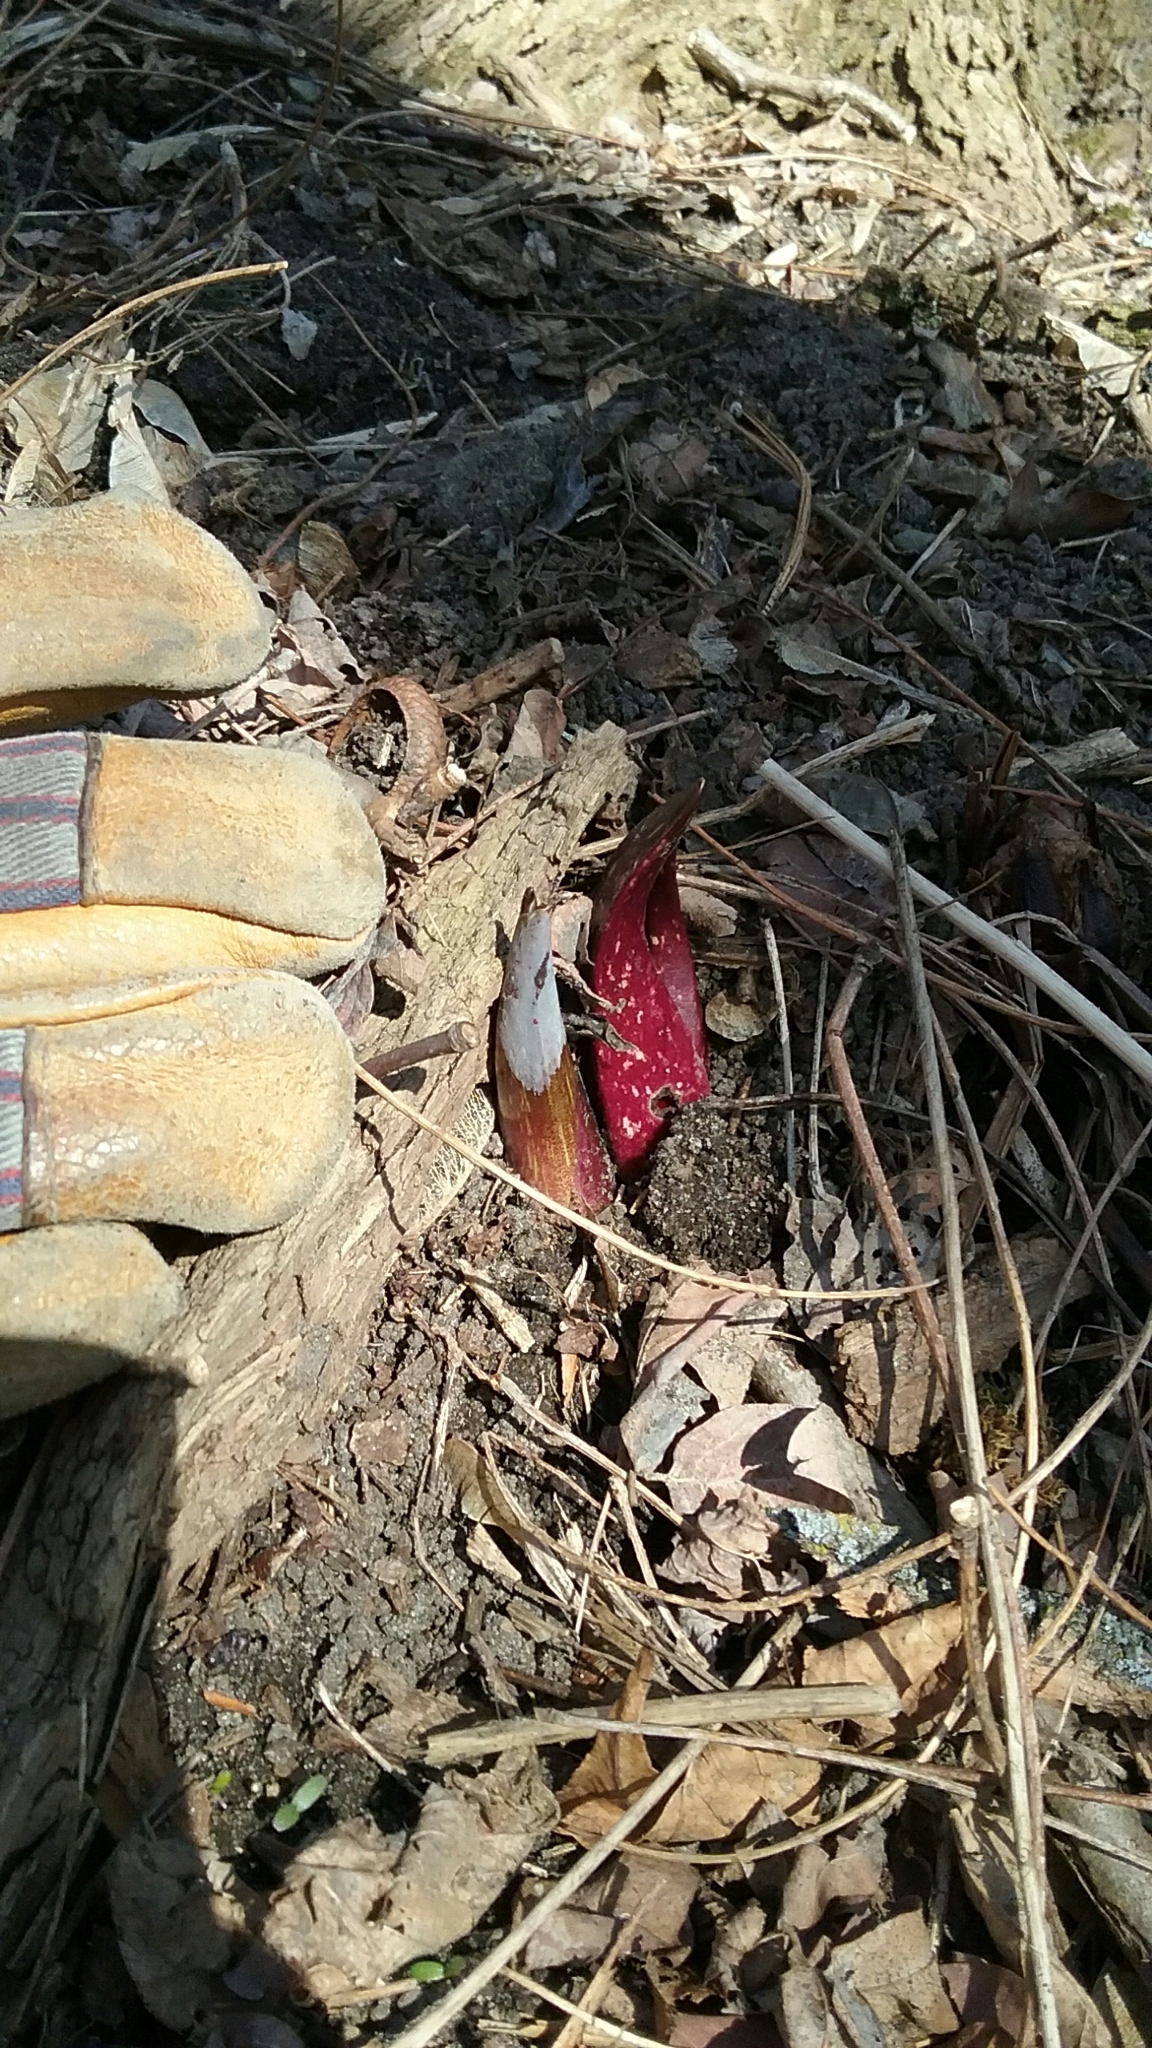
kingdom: Plantae
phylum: Tracheophyta
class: Liliopsida
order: Alismatales
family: Araceae
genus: Symplocarpus
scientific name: Symplocarpus foetidus
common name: Eastern skunk cabbage
